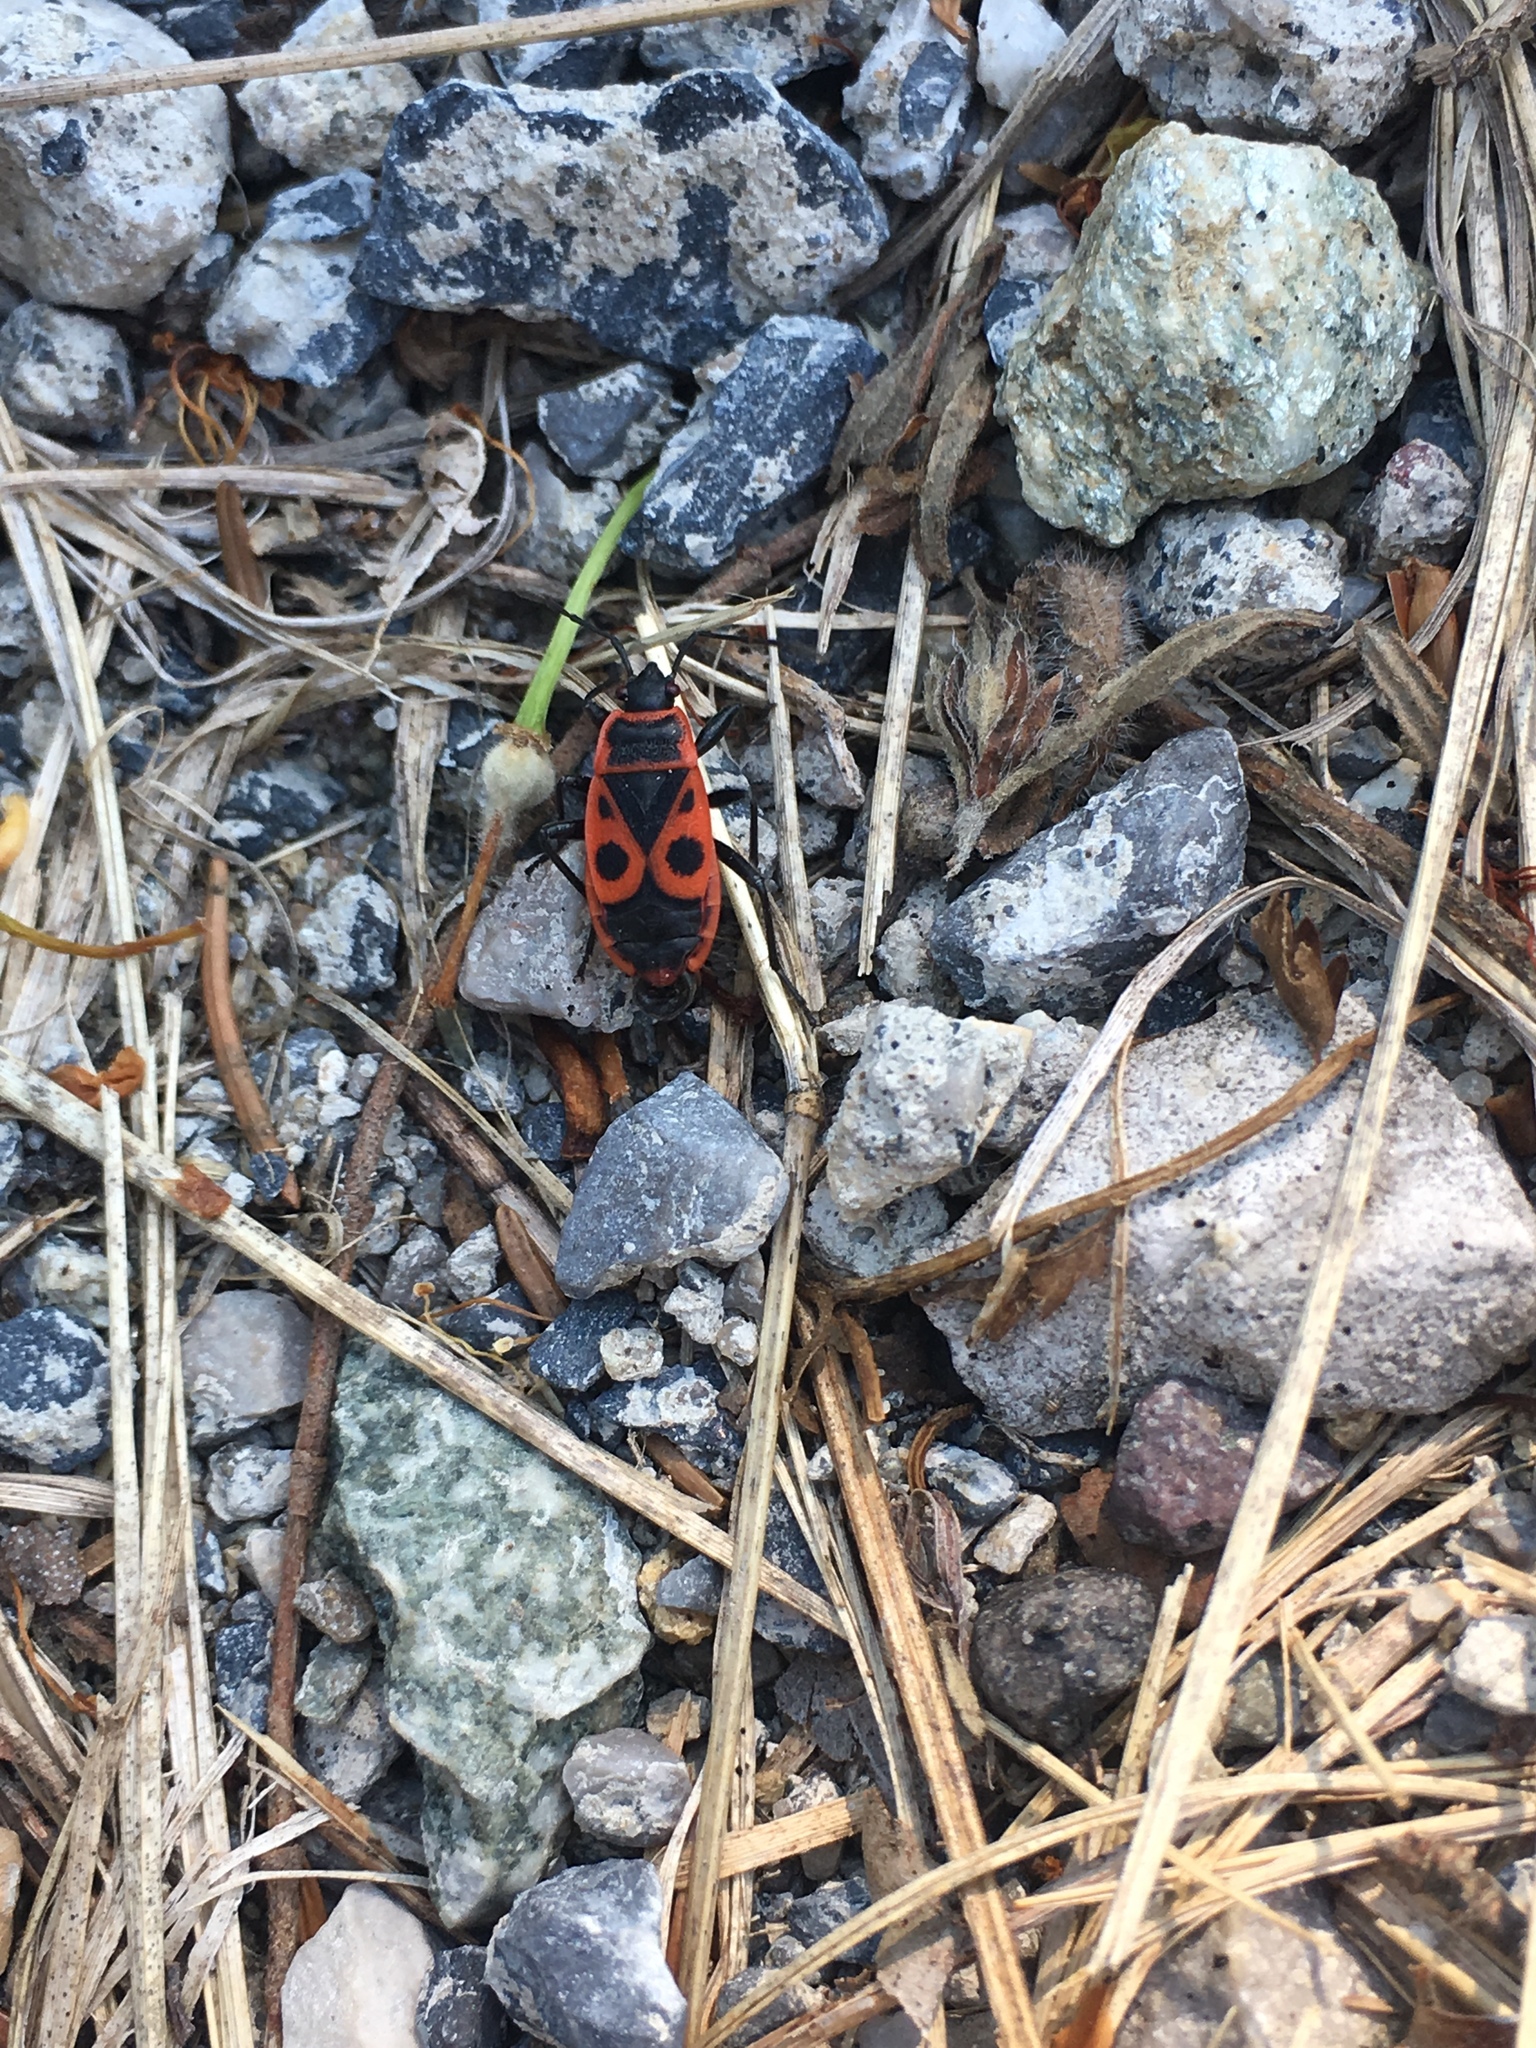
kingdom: Animalia
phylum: Arthropoda
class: Insecta
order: Hemiptera
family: Pyrrhocoridae
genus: Pyrrhocoris
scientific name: Pyrrhocoris apterus
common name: Firebug
